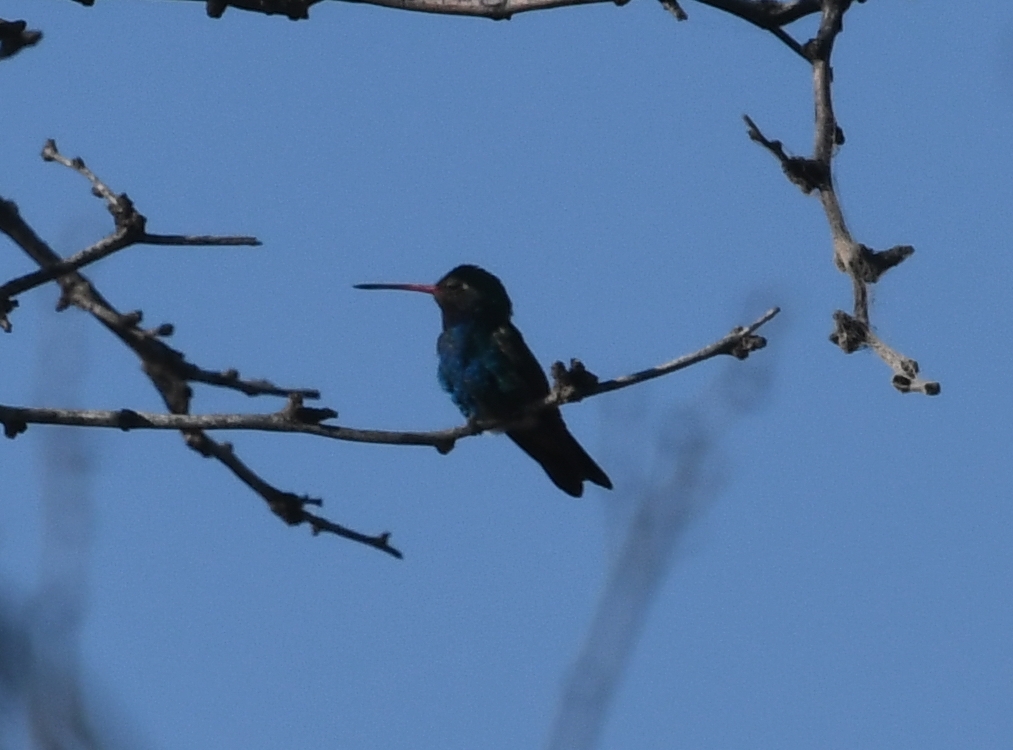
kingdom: Animalia
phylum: Chordata
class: Aves
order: Apodiformes
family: Trochilidae
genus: Cynanthus
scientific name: Cynanthus latirostris
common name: Broad-billed hummingbird
